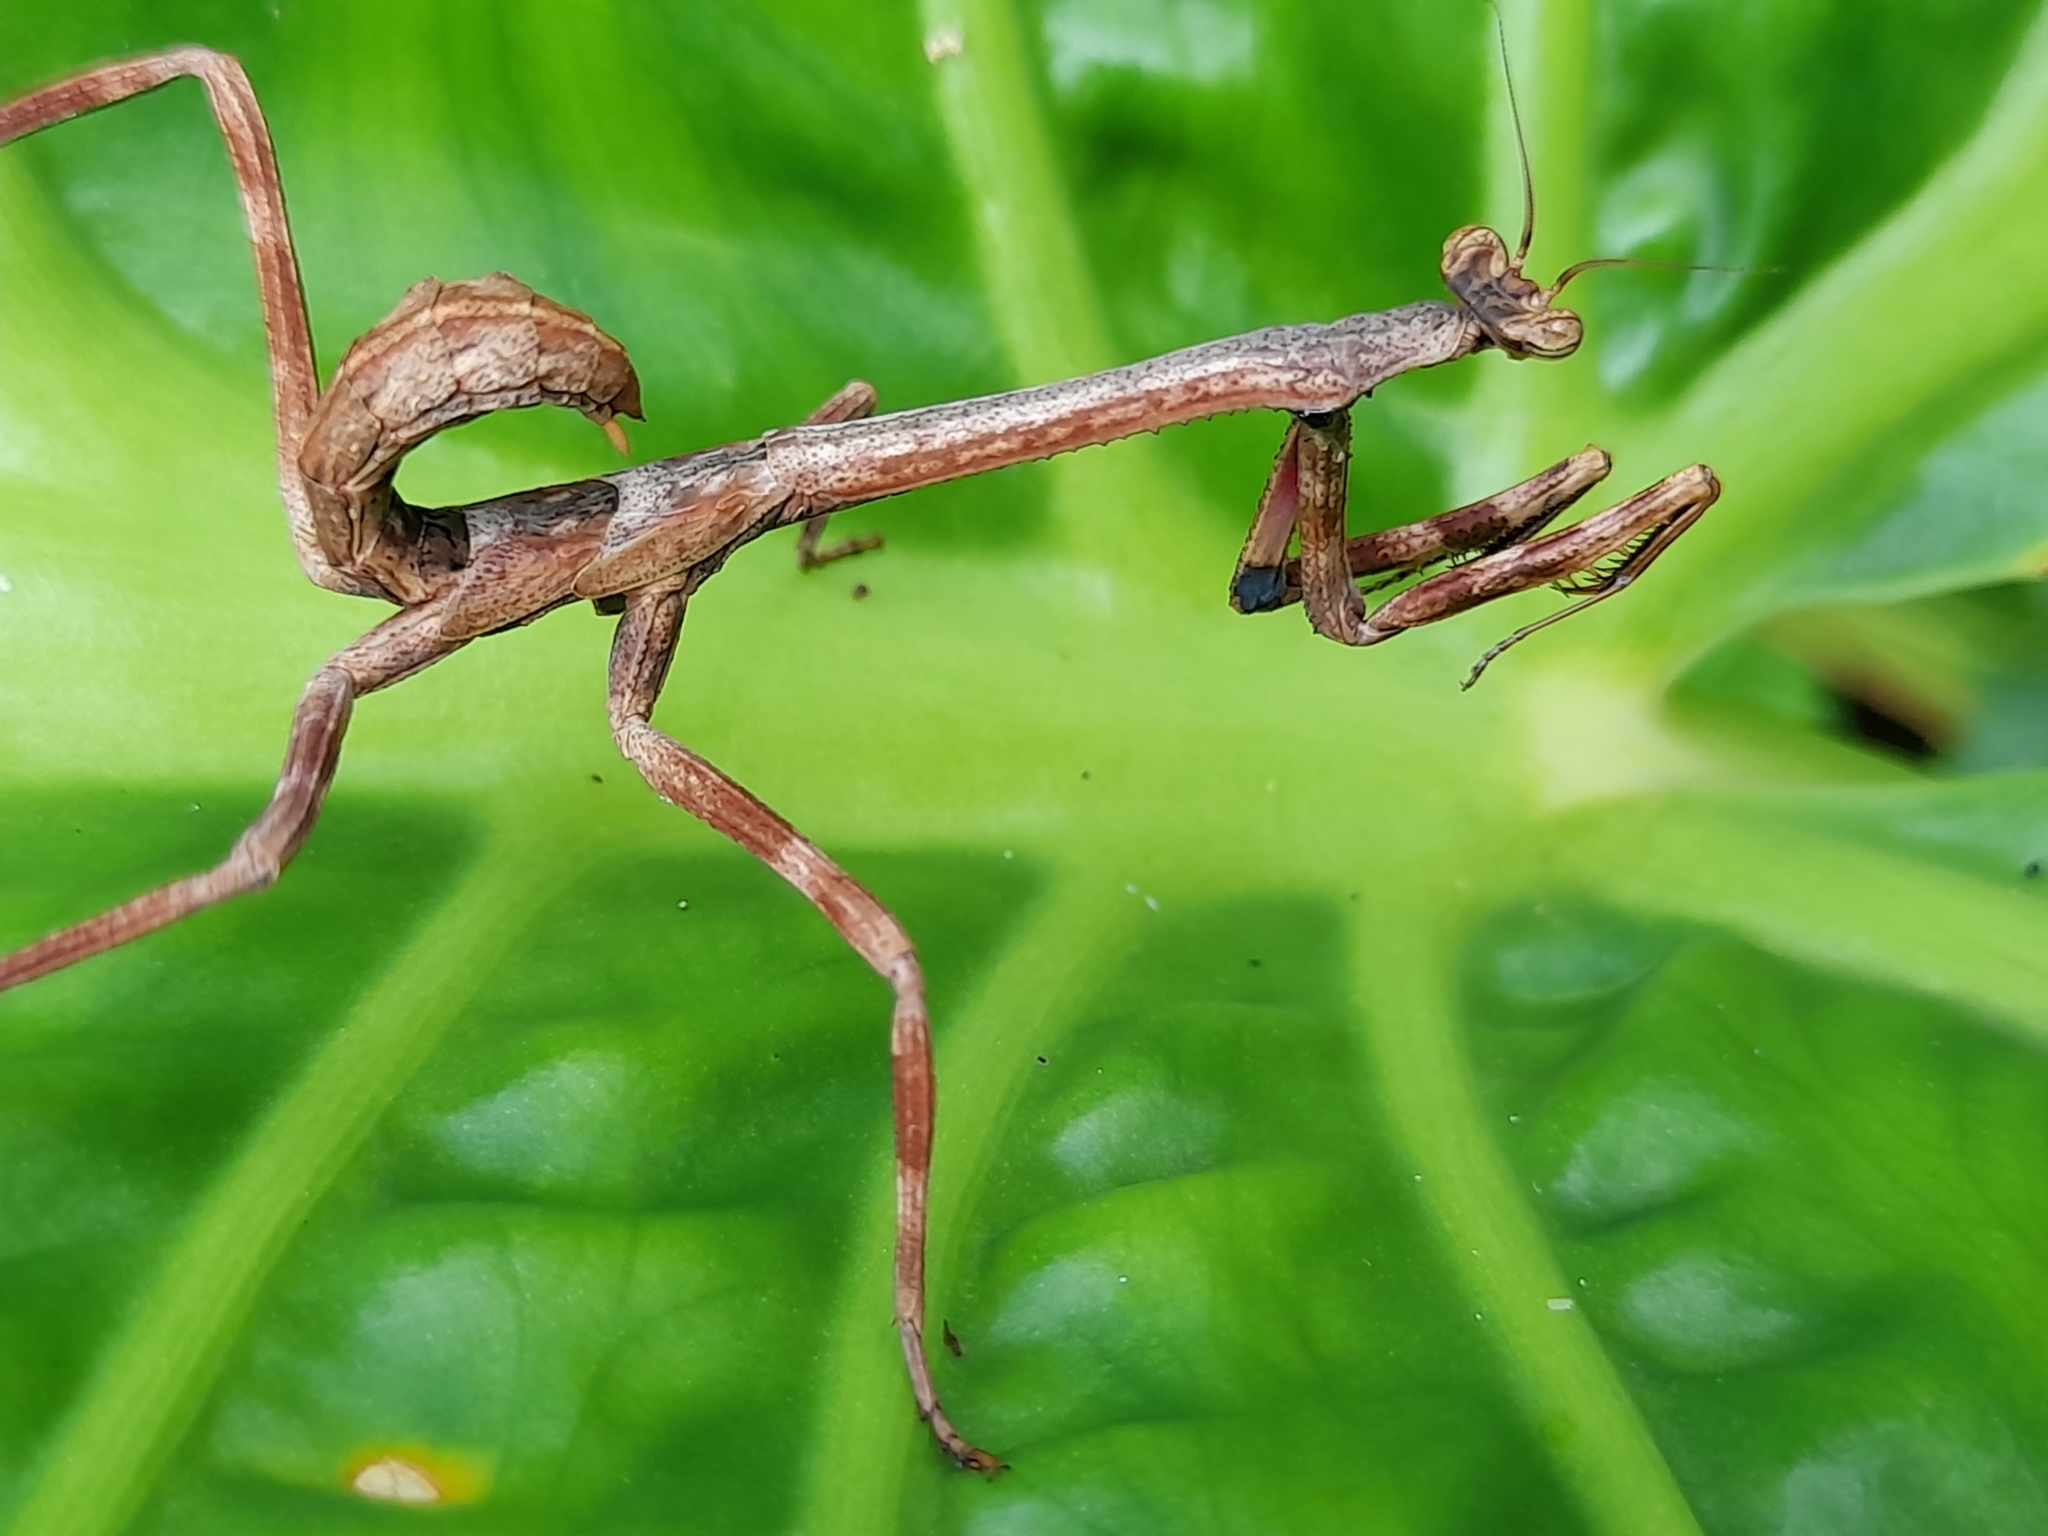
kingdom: Animalia
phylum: Arthropoda
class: Insecta
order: Mantodea
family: Mantidae
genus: Pseudovates
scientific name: Pseudovates iheringi
